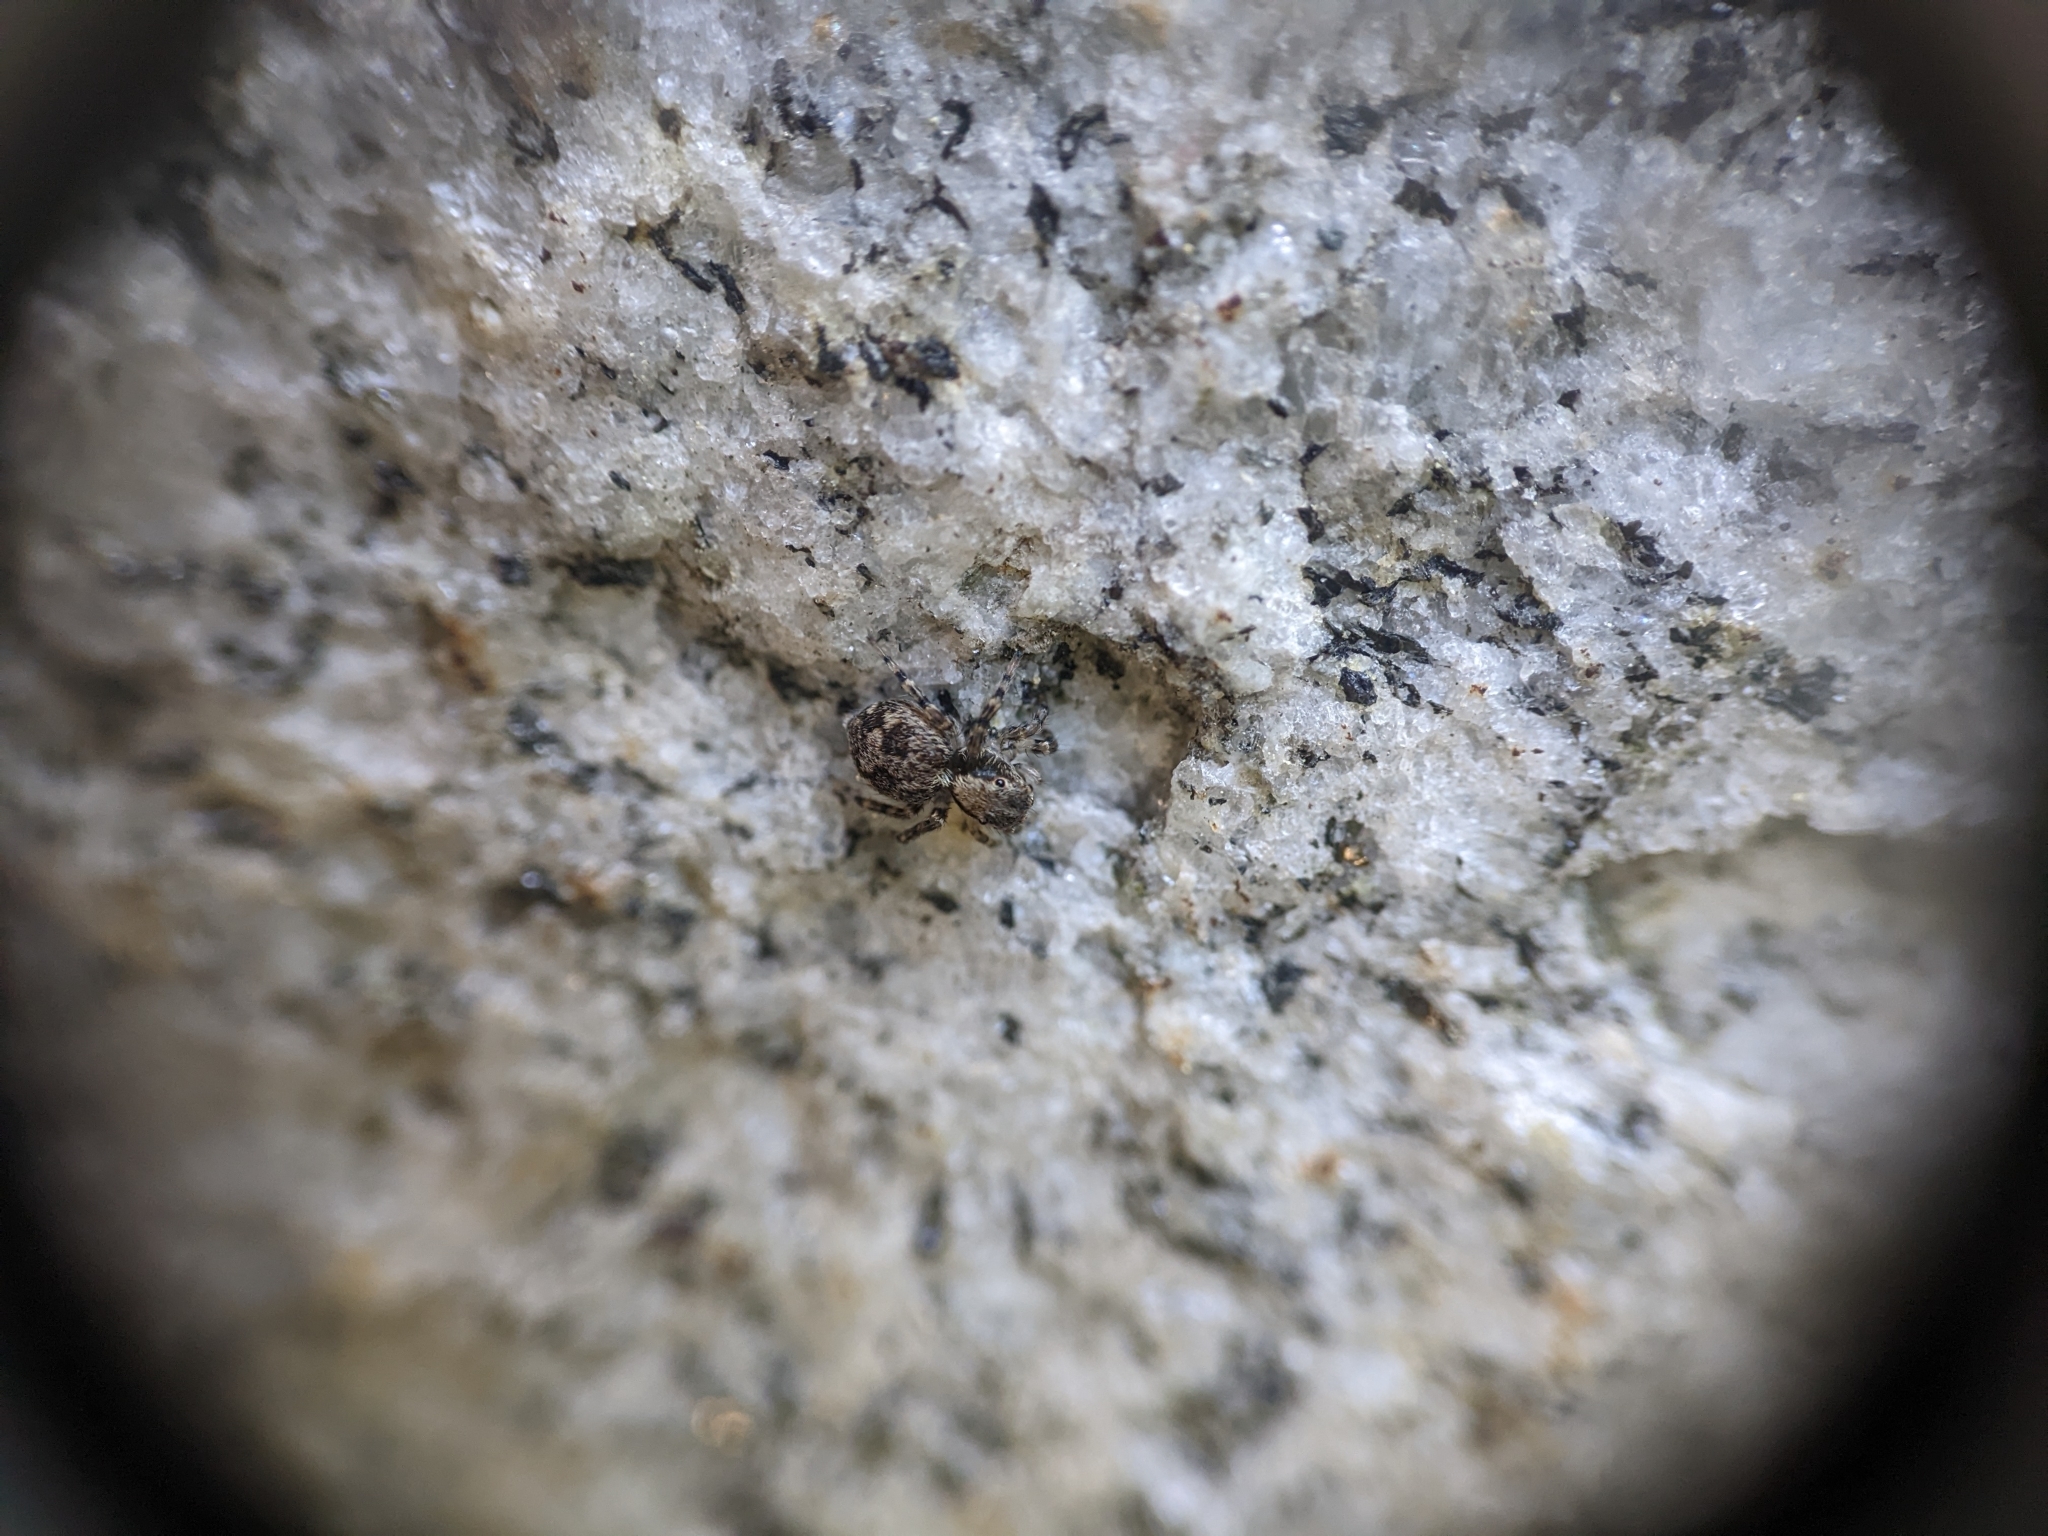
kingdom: Animalia
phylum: Arthropoda
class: Arachnida
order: Araneae
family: Salticidae
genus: Naphrys
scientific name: Naphrys pulex
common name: Flea jumping spider
